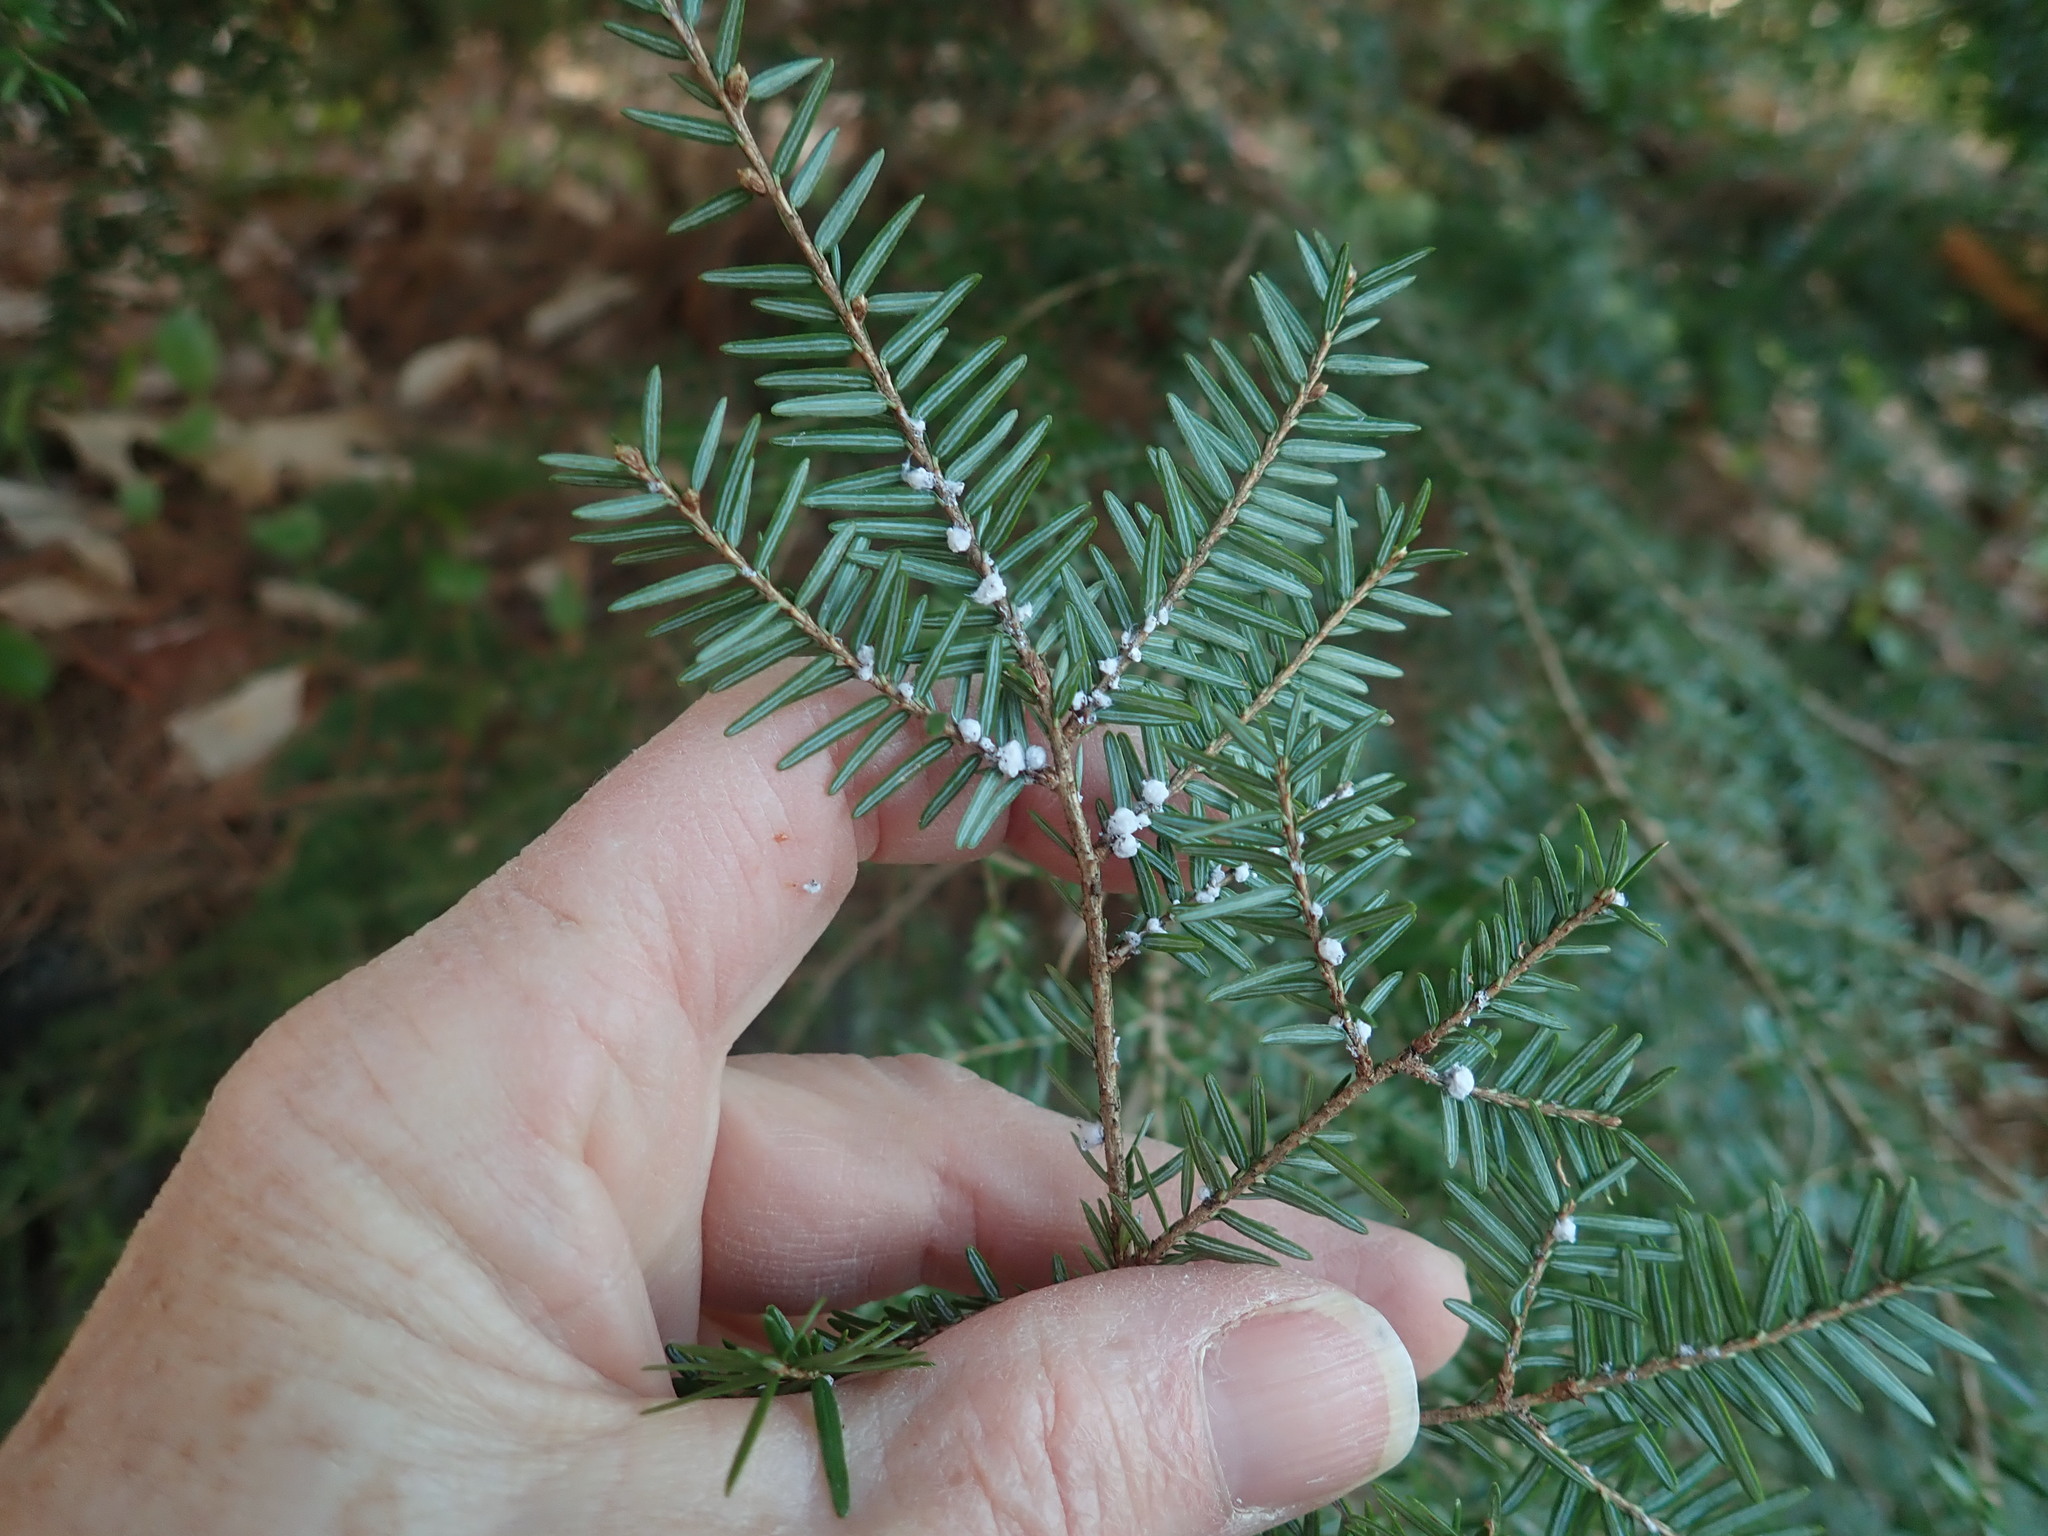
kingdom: Animalia
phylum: Arthropoda
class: Insecta
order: Hemiptera
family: Adelgidae
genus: Adelges
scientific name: Adelges tsugae
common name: Hemlock woolly adelgid
